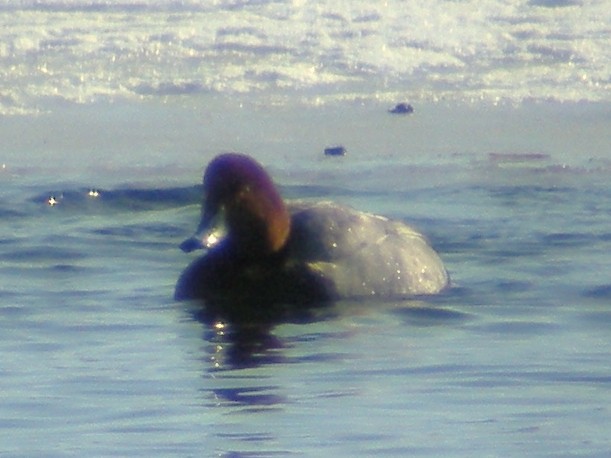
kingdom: Animalia
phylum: Chordata
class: Aves
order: Anseriformes
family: Anatidae
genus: Aythya
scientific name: Aythya americana
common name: Redhead
